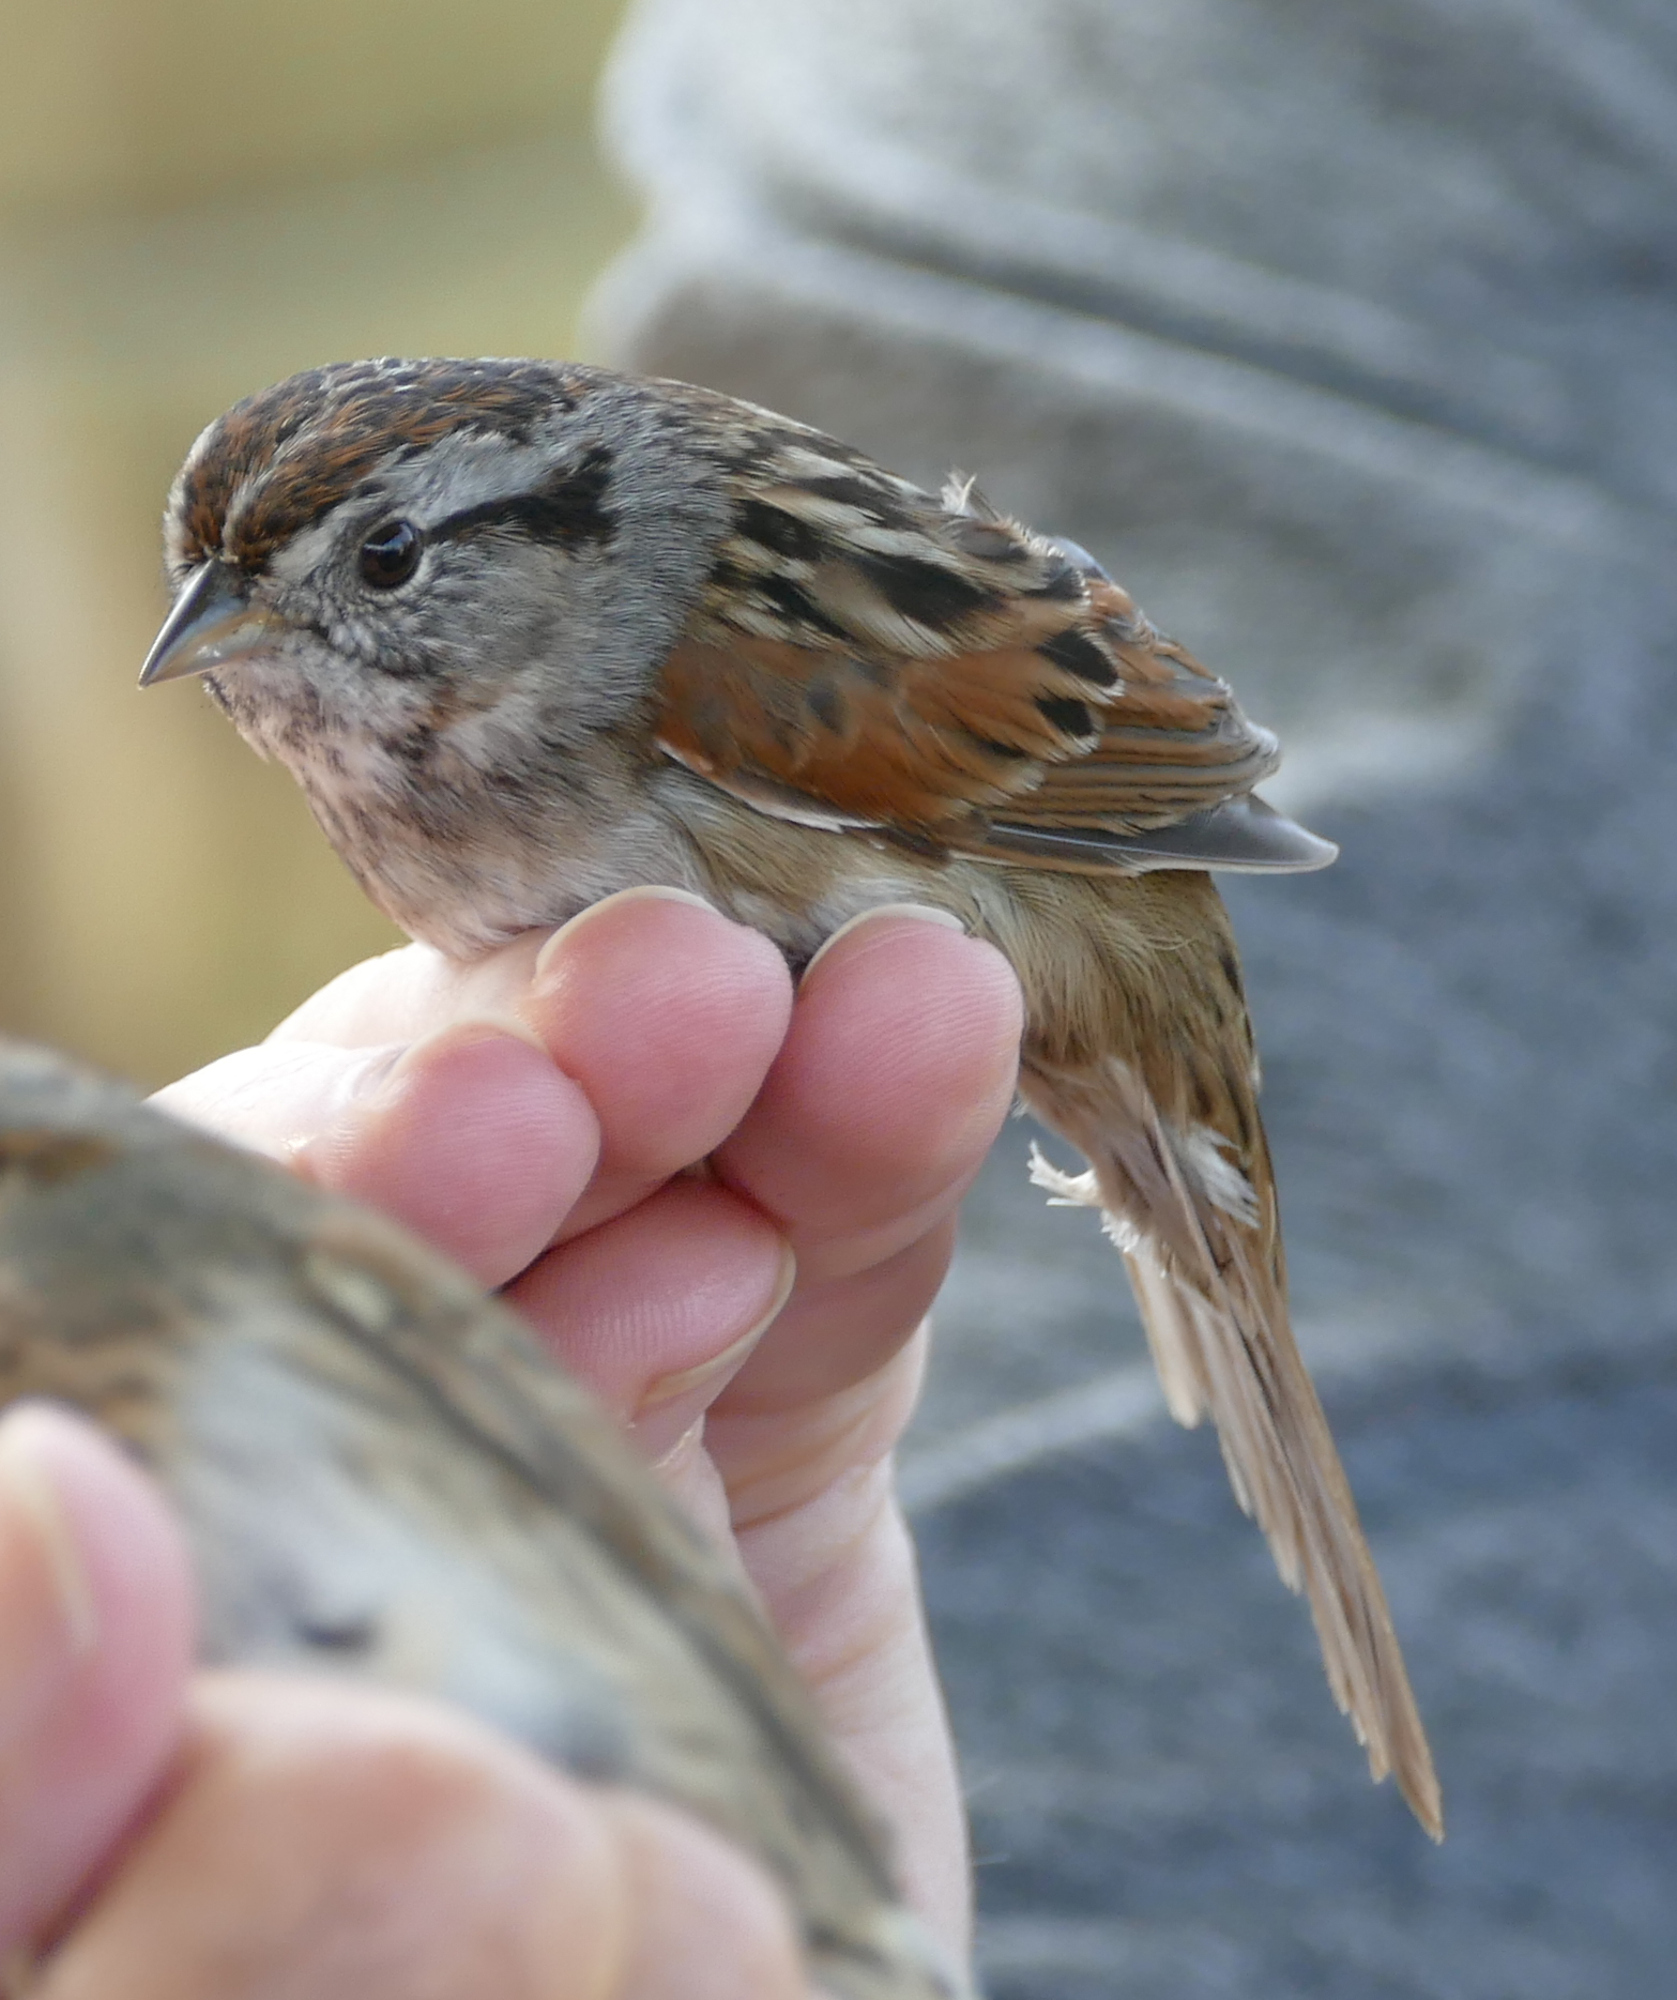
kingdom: Animalia
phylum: Chordata
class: Aves
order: Passeriformes
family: Passerellidae
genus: Melospiza
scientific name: Melospiza georgiana
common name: Swamp sparrow
